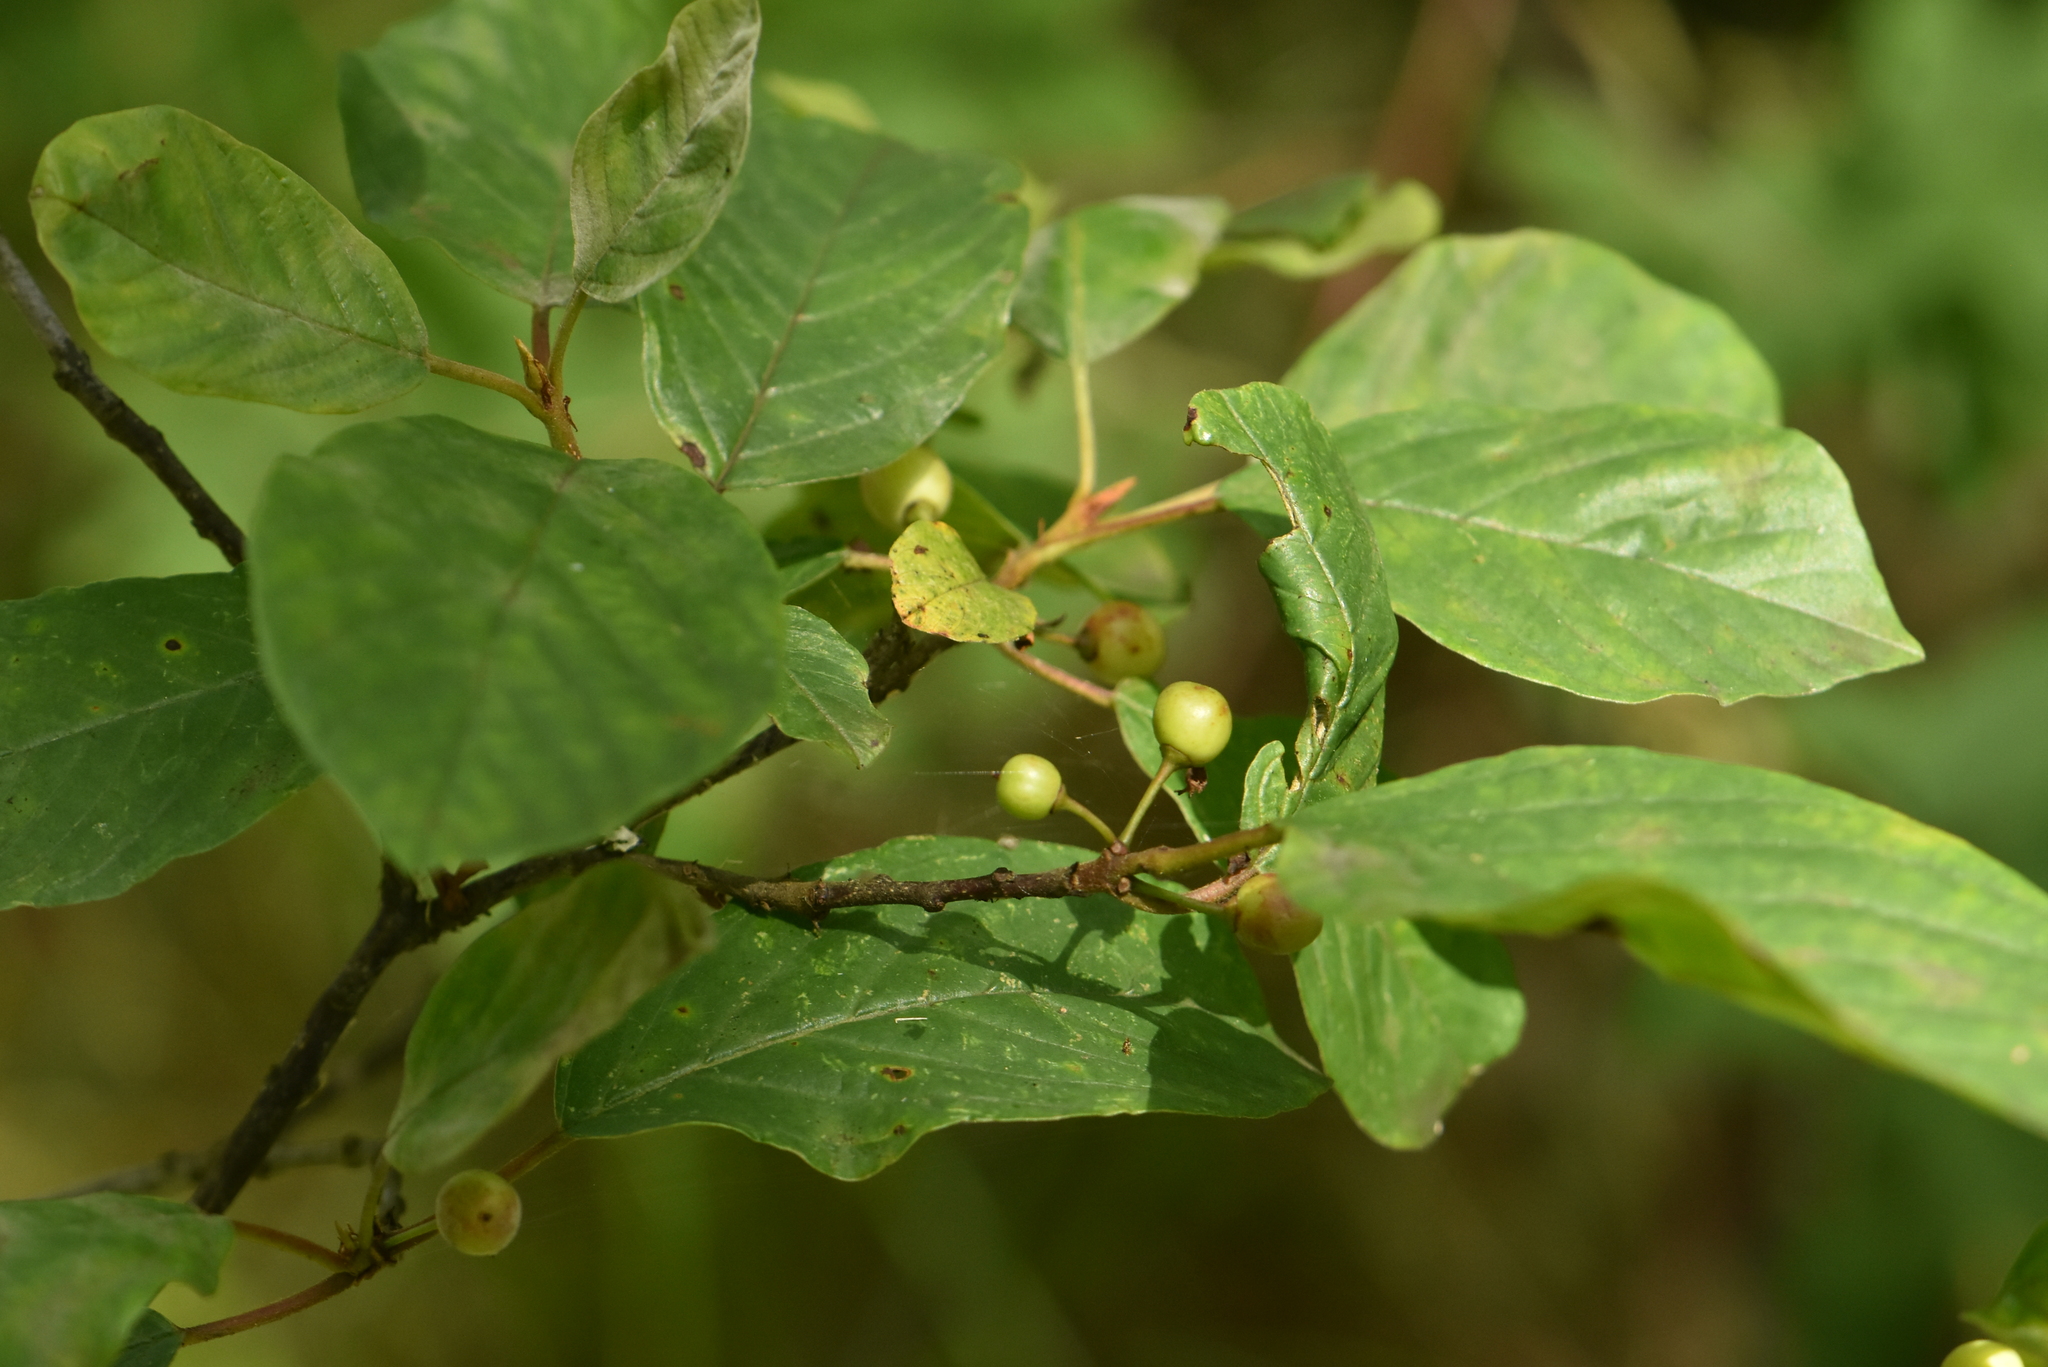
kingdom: Plantae
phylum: Tracheophyta
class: Magnoliopsida
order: Rosales
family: Rhamnaceae
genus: Frangula
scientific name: Frangula alnus
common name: Alder buckthorn
